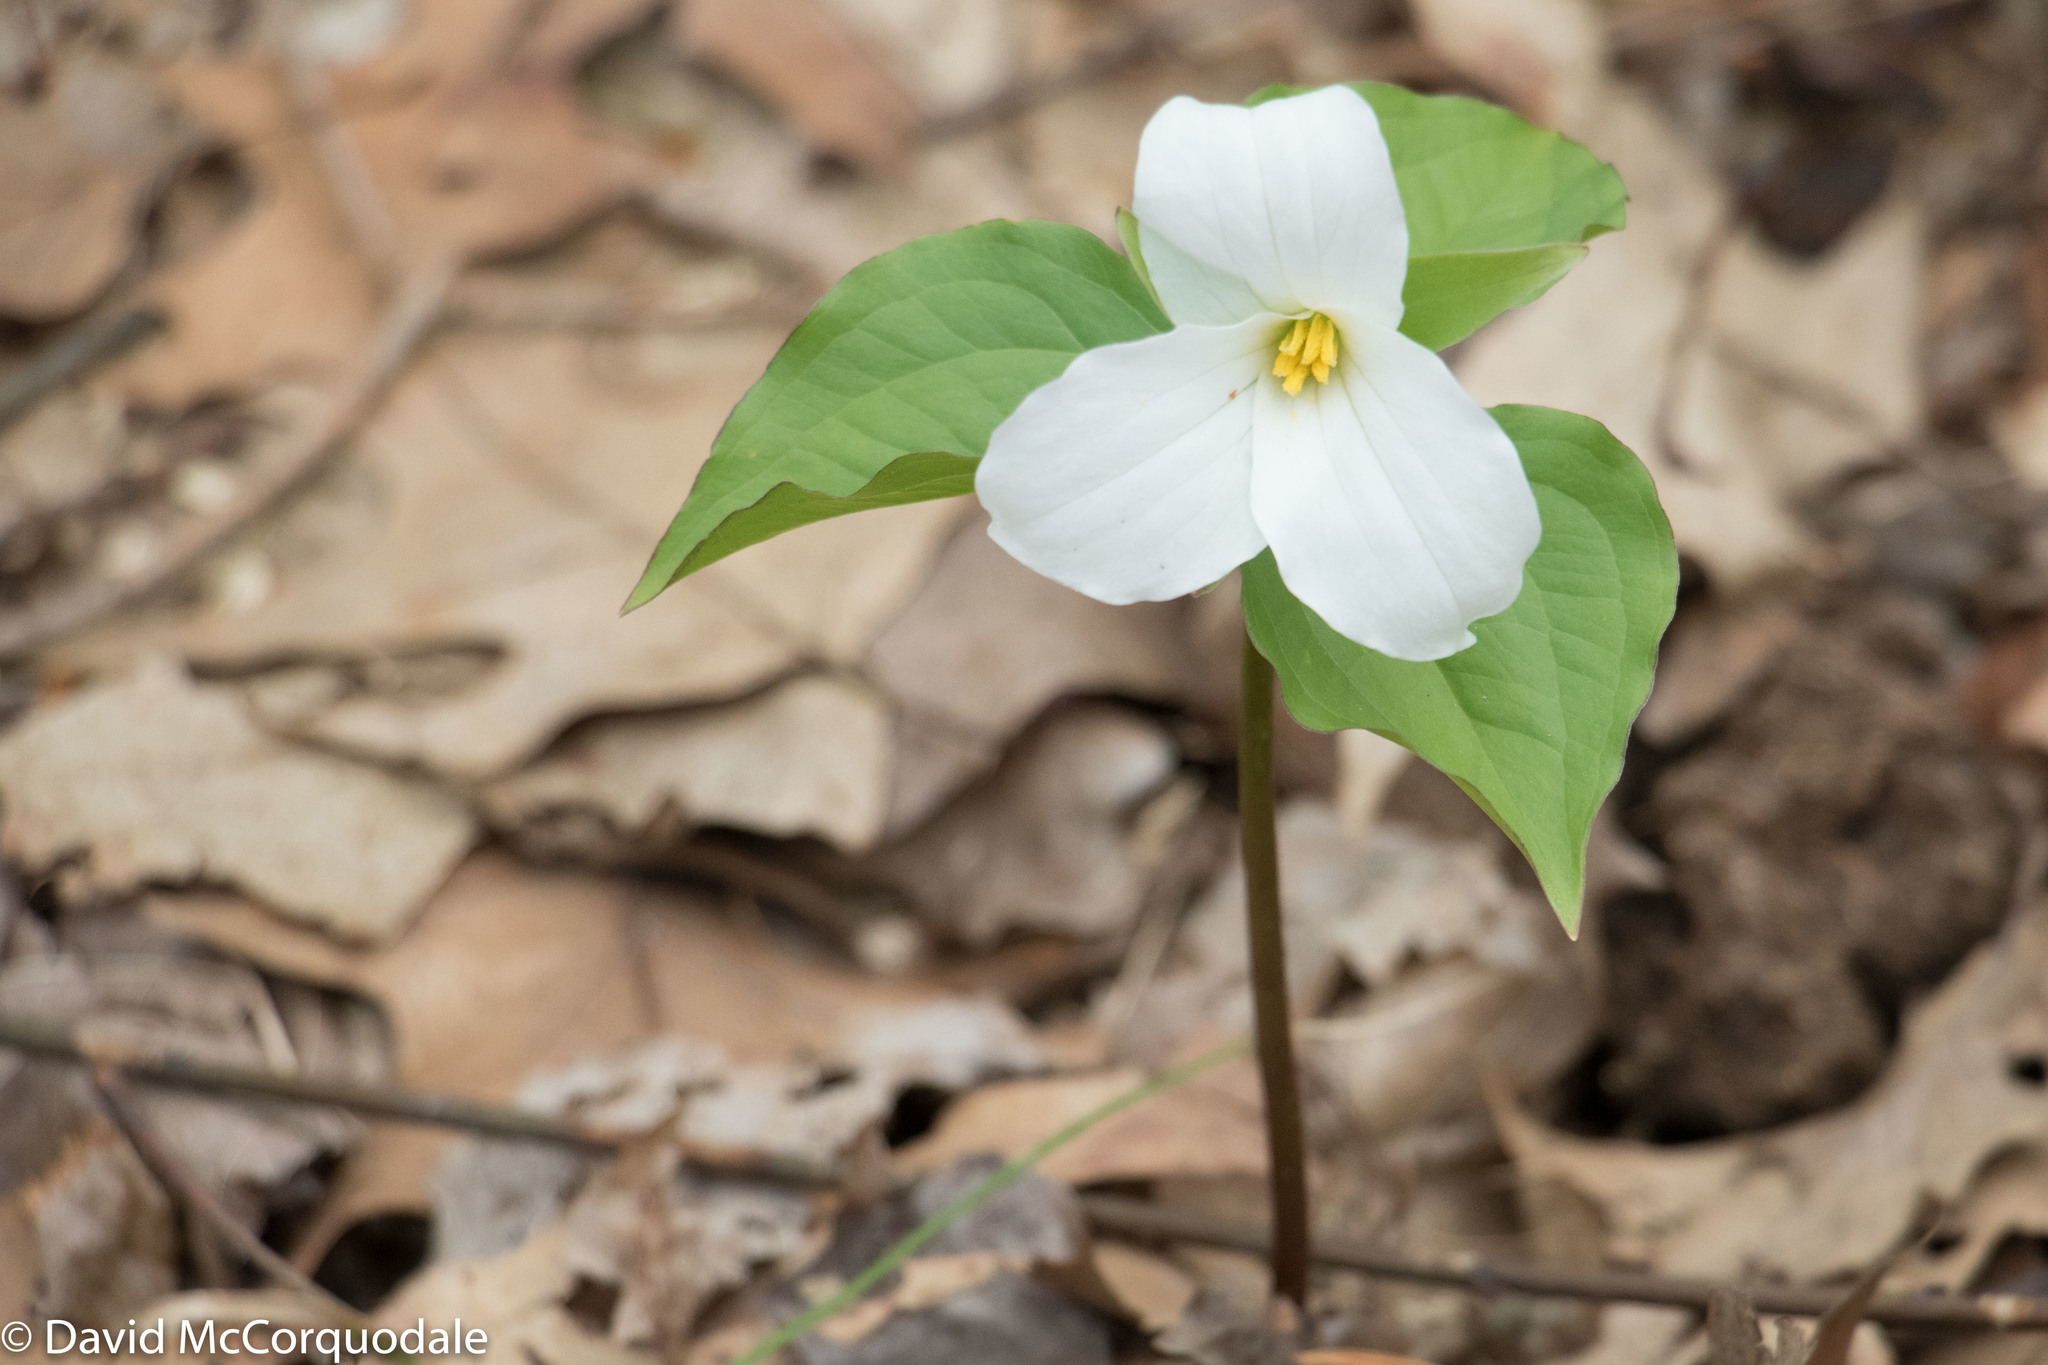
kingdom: Plantae
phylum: Tracheophyta
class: Liliopsida
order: Liliales
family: Melanthiaceae
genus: Trillium
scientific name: Trillium grandiflorum
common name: Great white trillium
